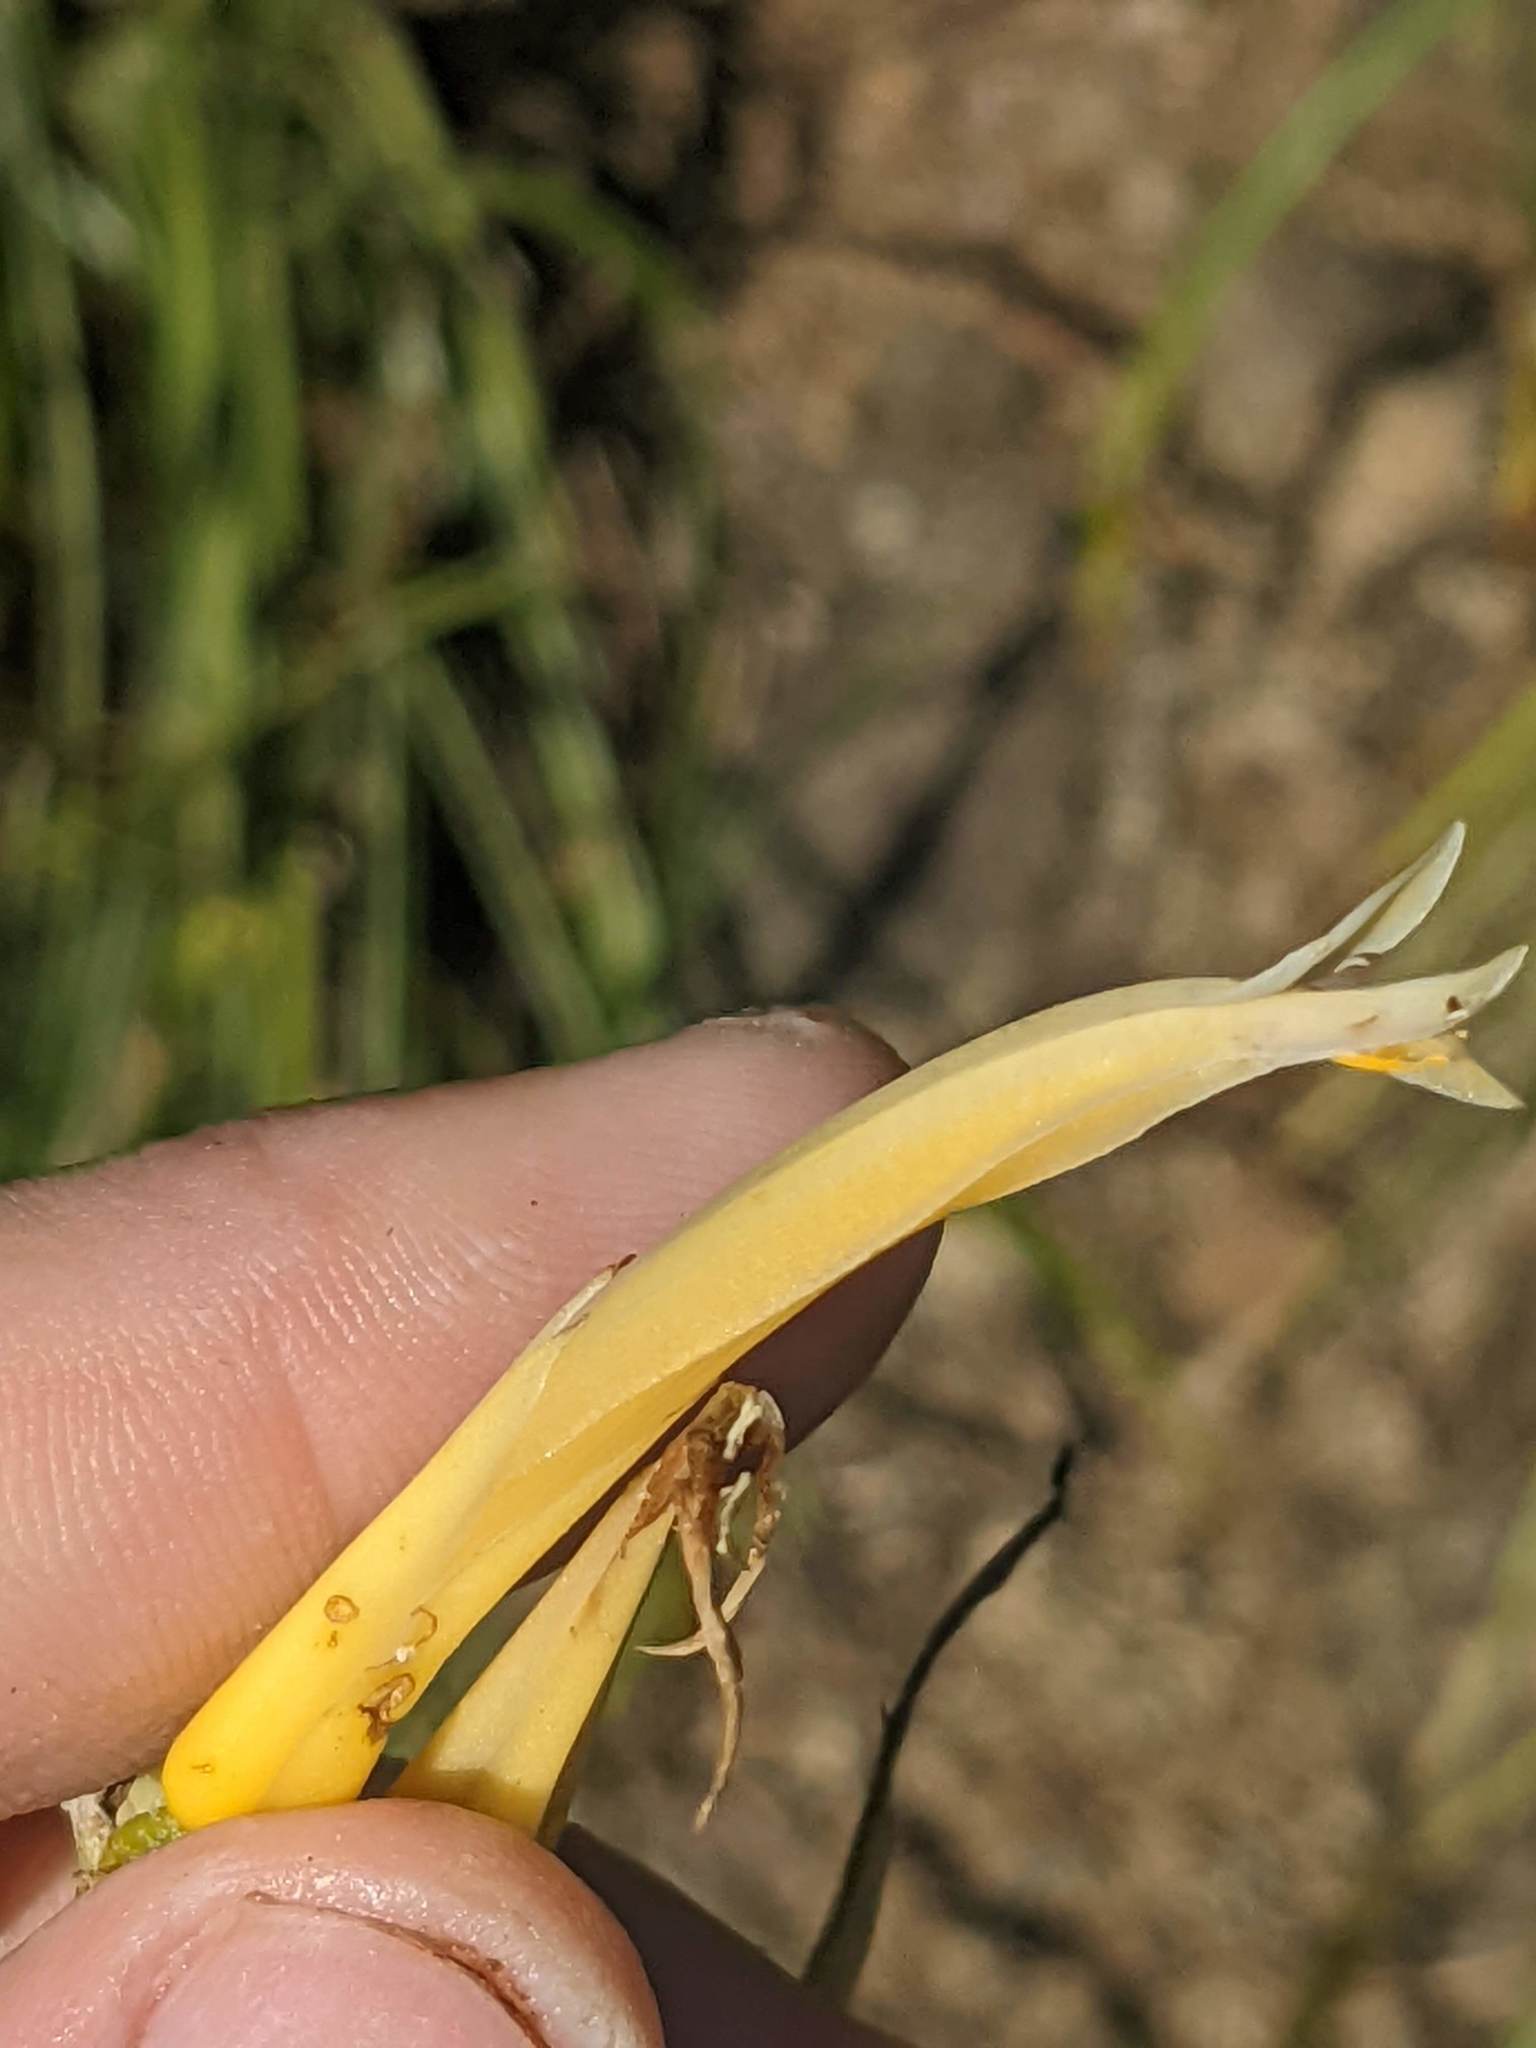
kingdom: Plantae
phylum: Tracheophyta
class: Liliopsida
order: Poales
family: Bromeliaceae
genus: Pitcairnia
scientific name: Pitcairnia halophila
